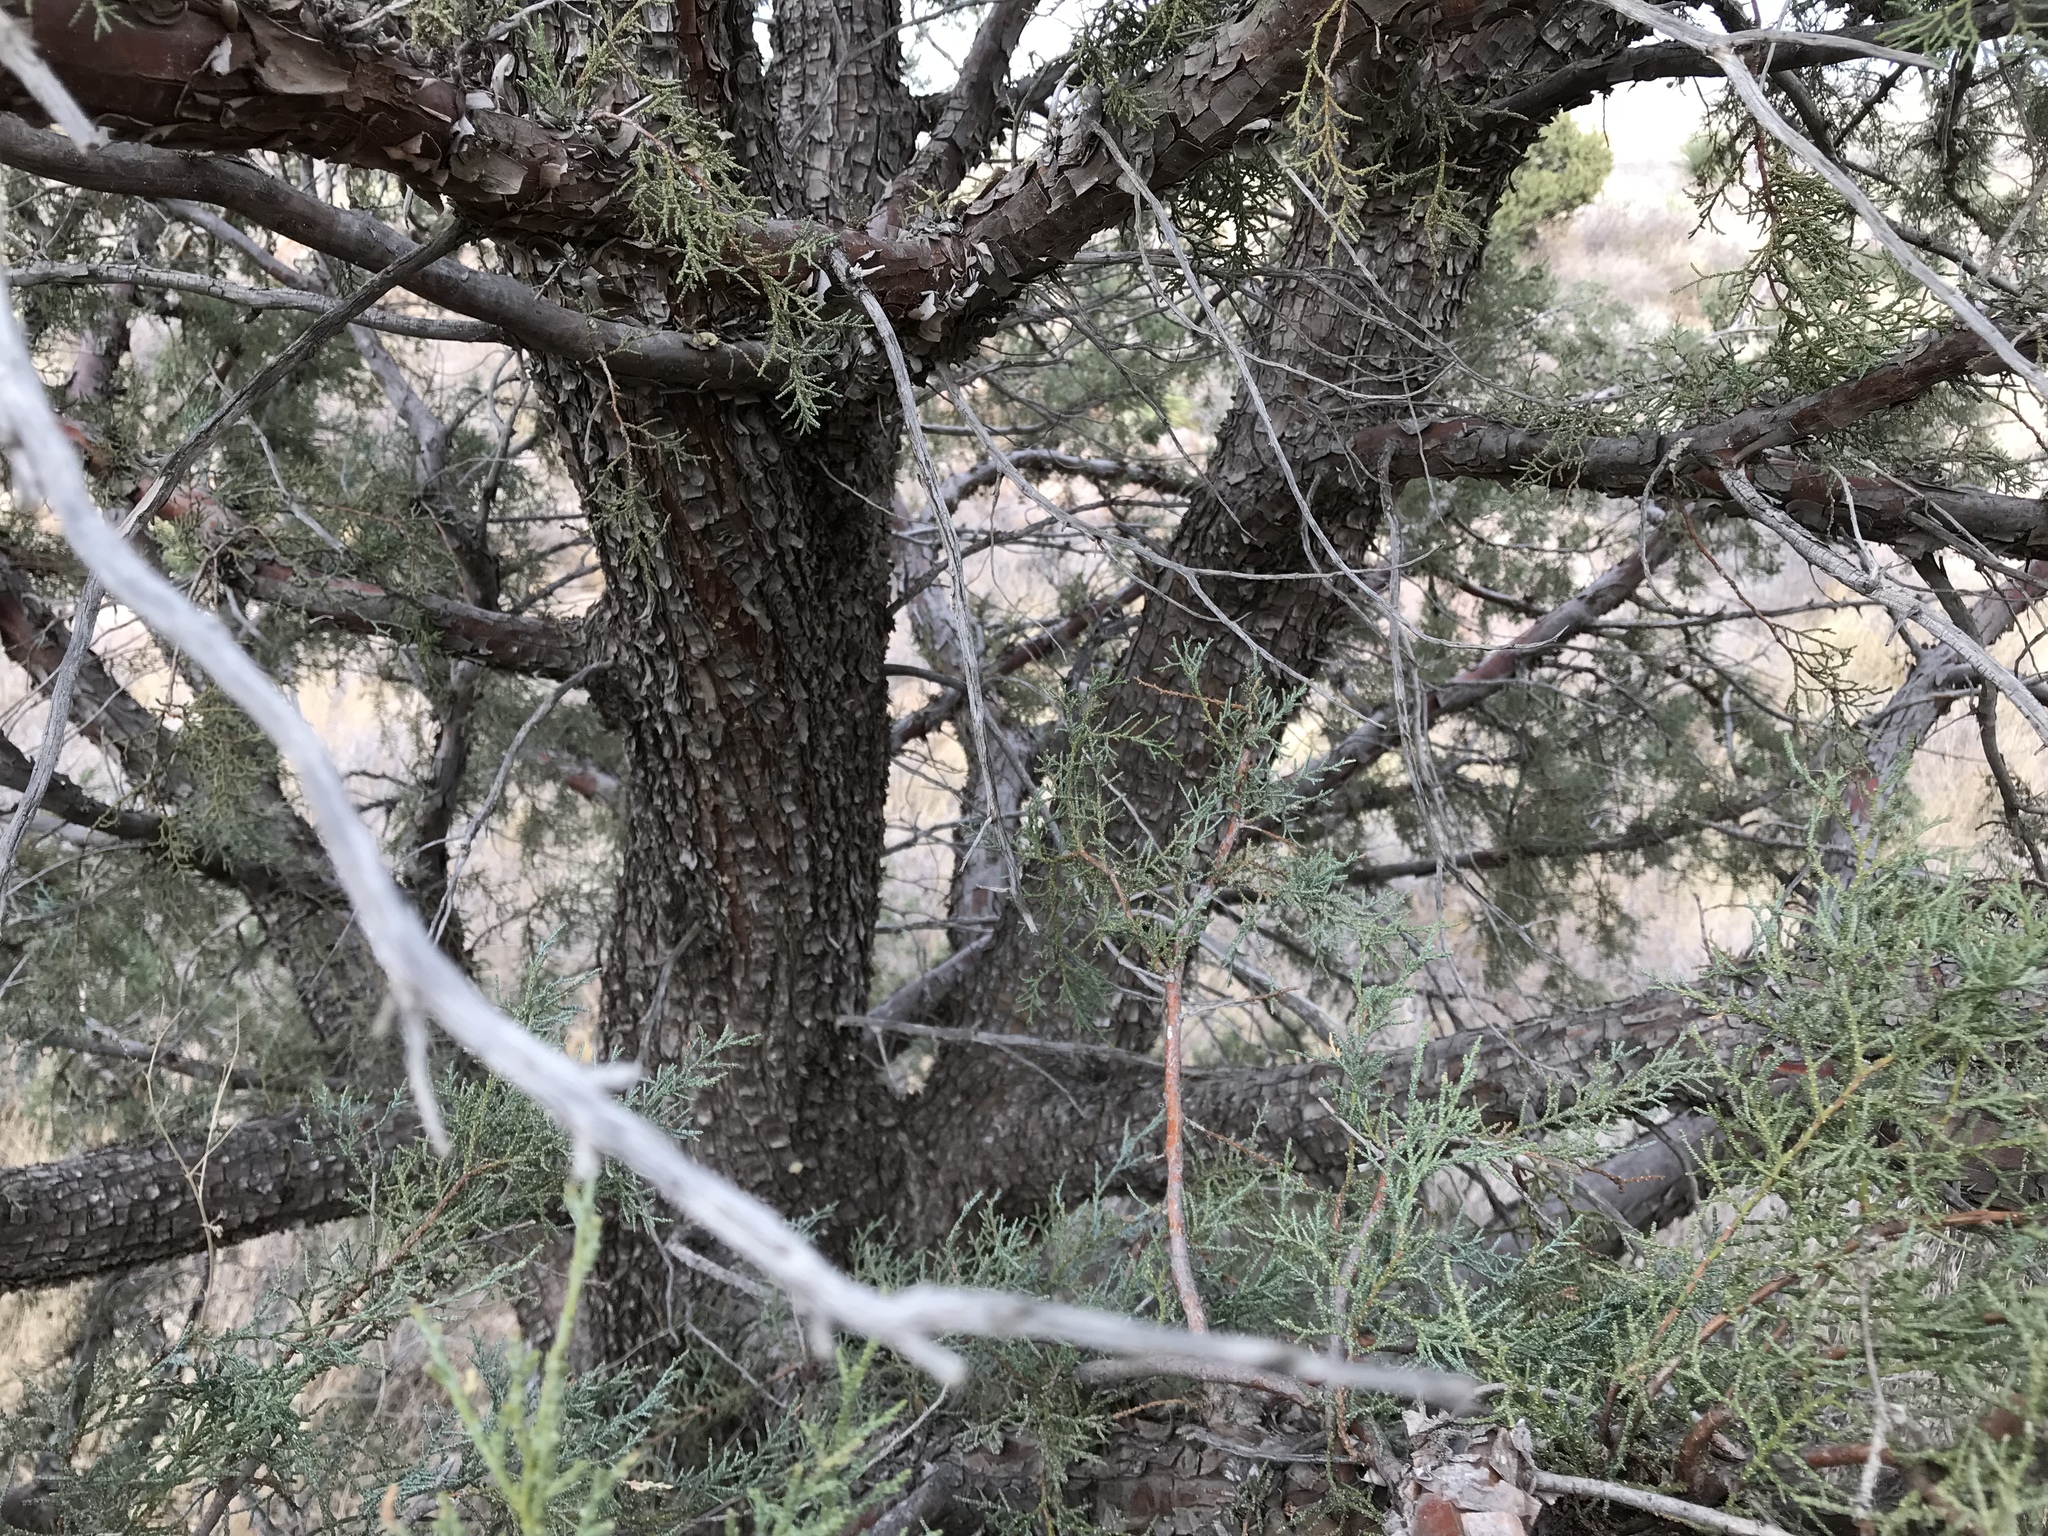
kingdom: Plantae
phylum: Tracheophyta
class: Pinopsida
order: Pinales
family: Cupressaceae
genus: Juniperus
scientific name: Juniperus deppeana
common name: Alligator juniper
